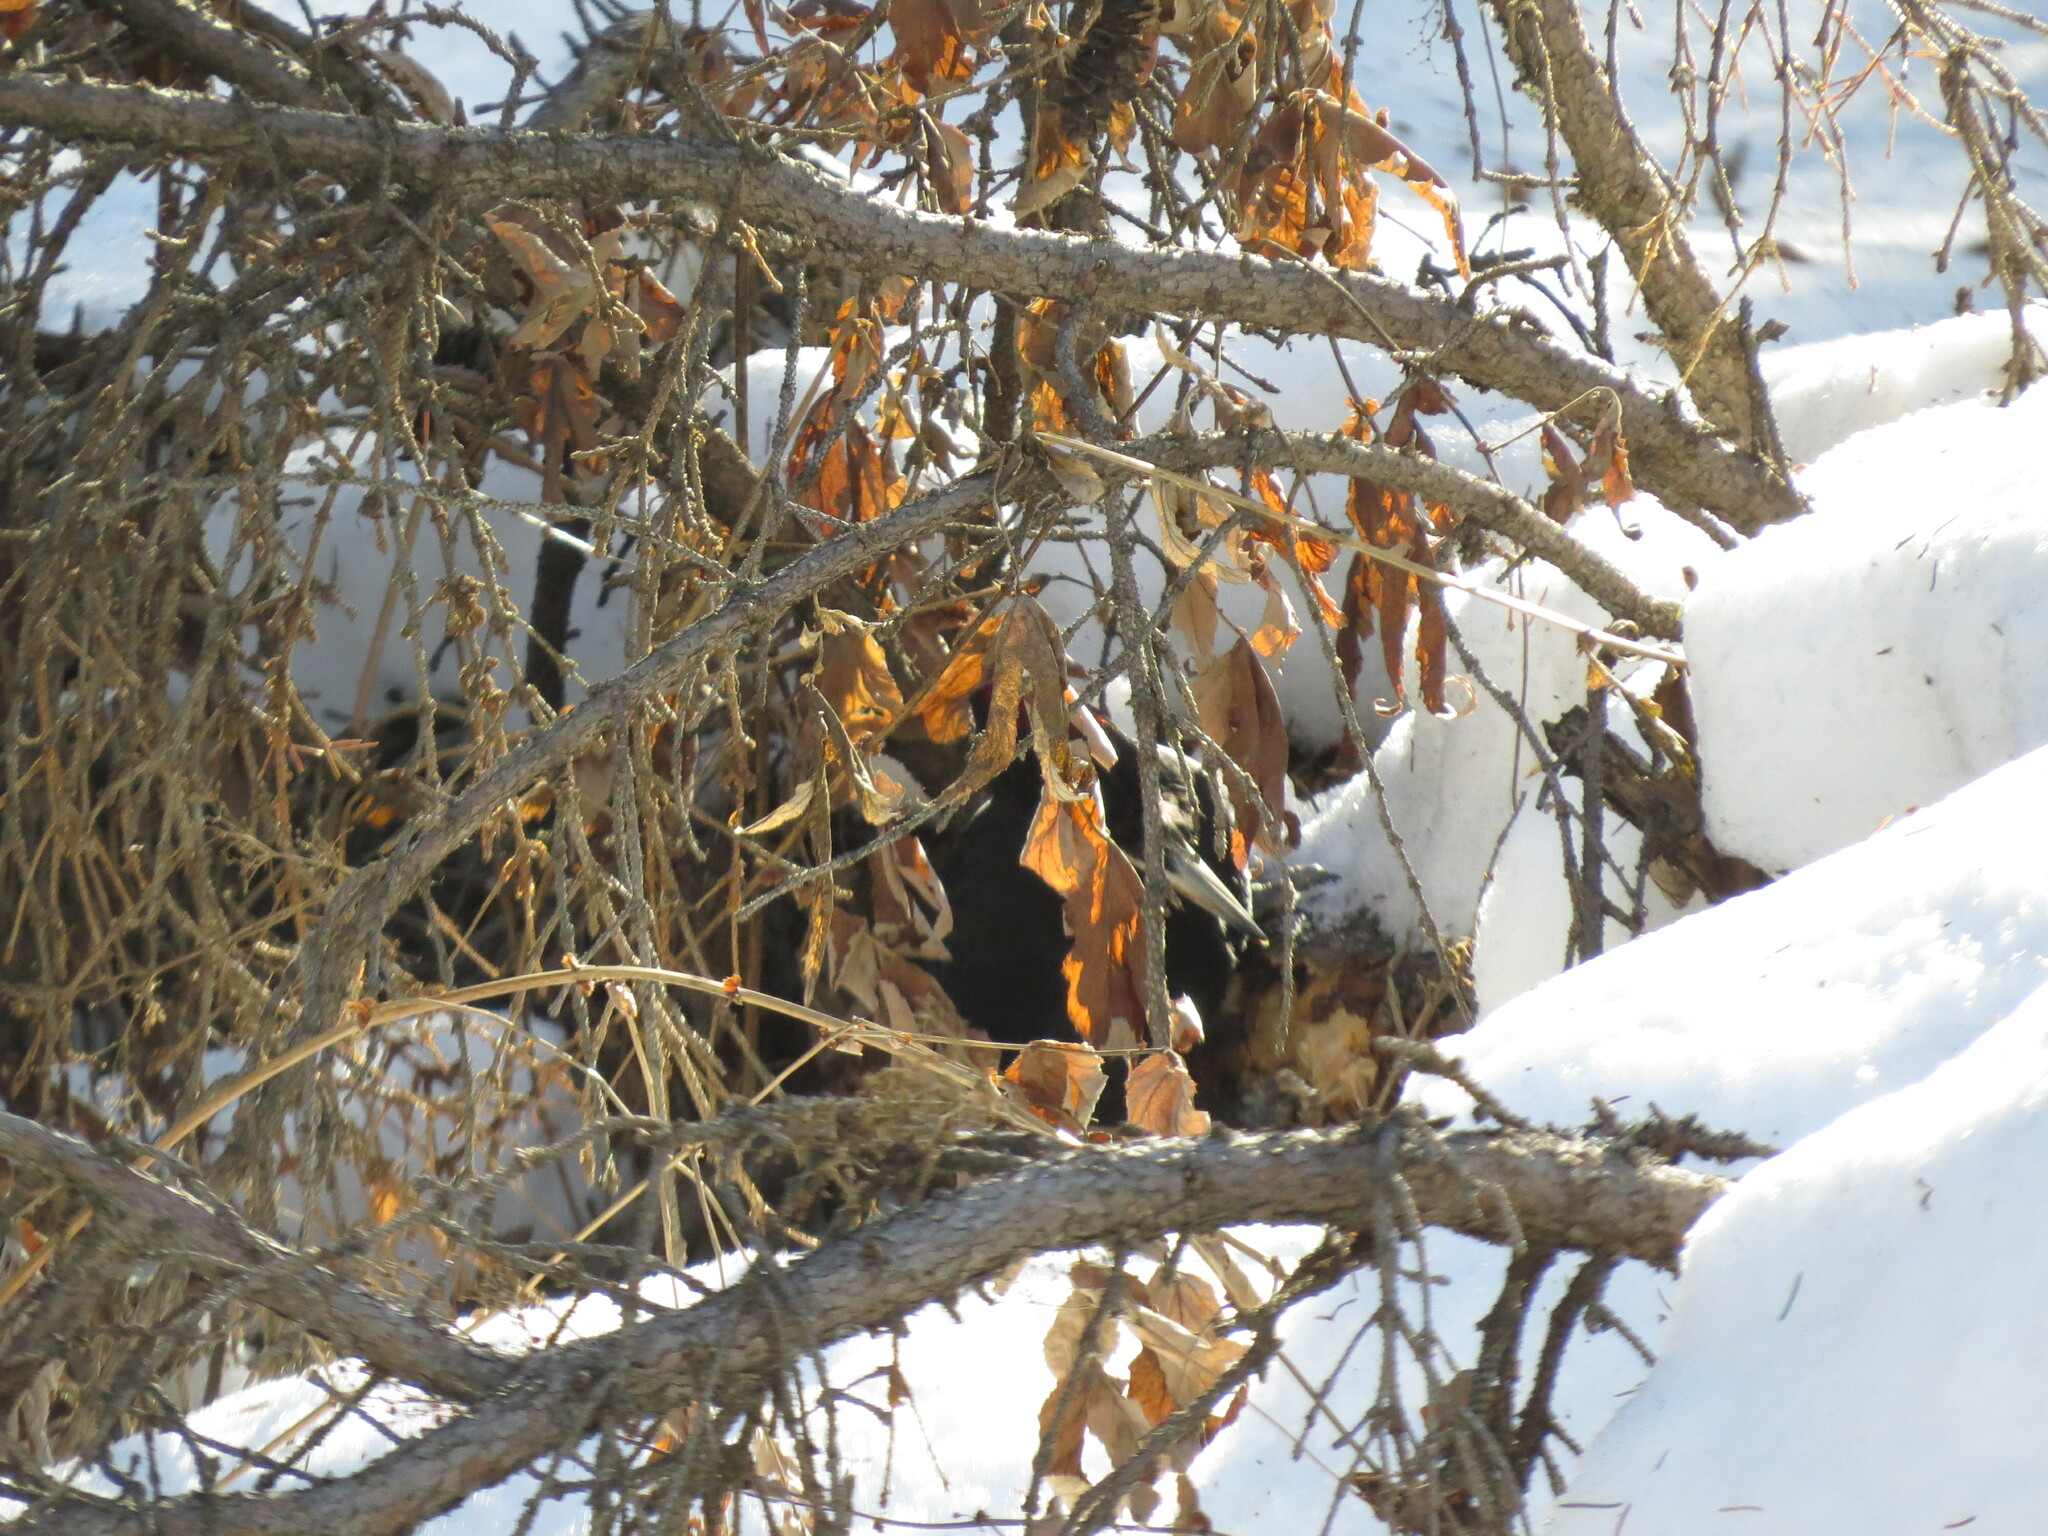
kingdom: Animalia
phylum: Chordata
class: Aves
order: Piciformes
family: Picidae
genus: Dryocopus
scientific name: Dryocopus martius
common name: Black woodpecker
